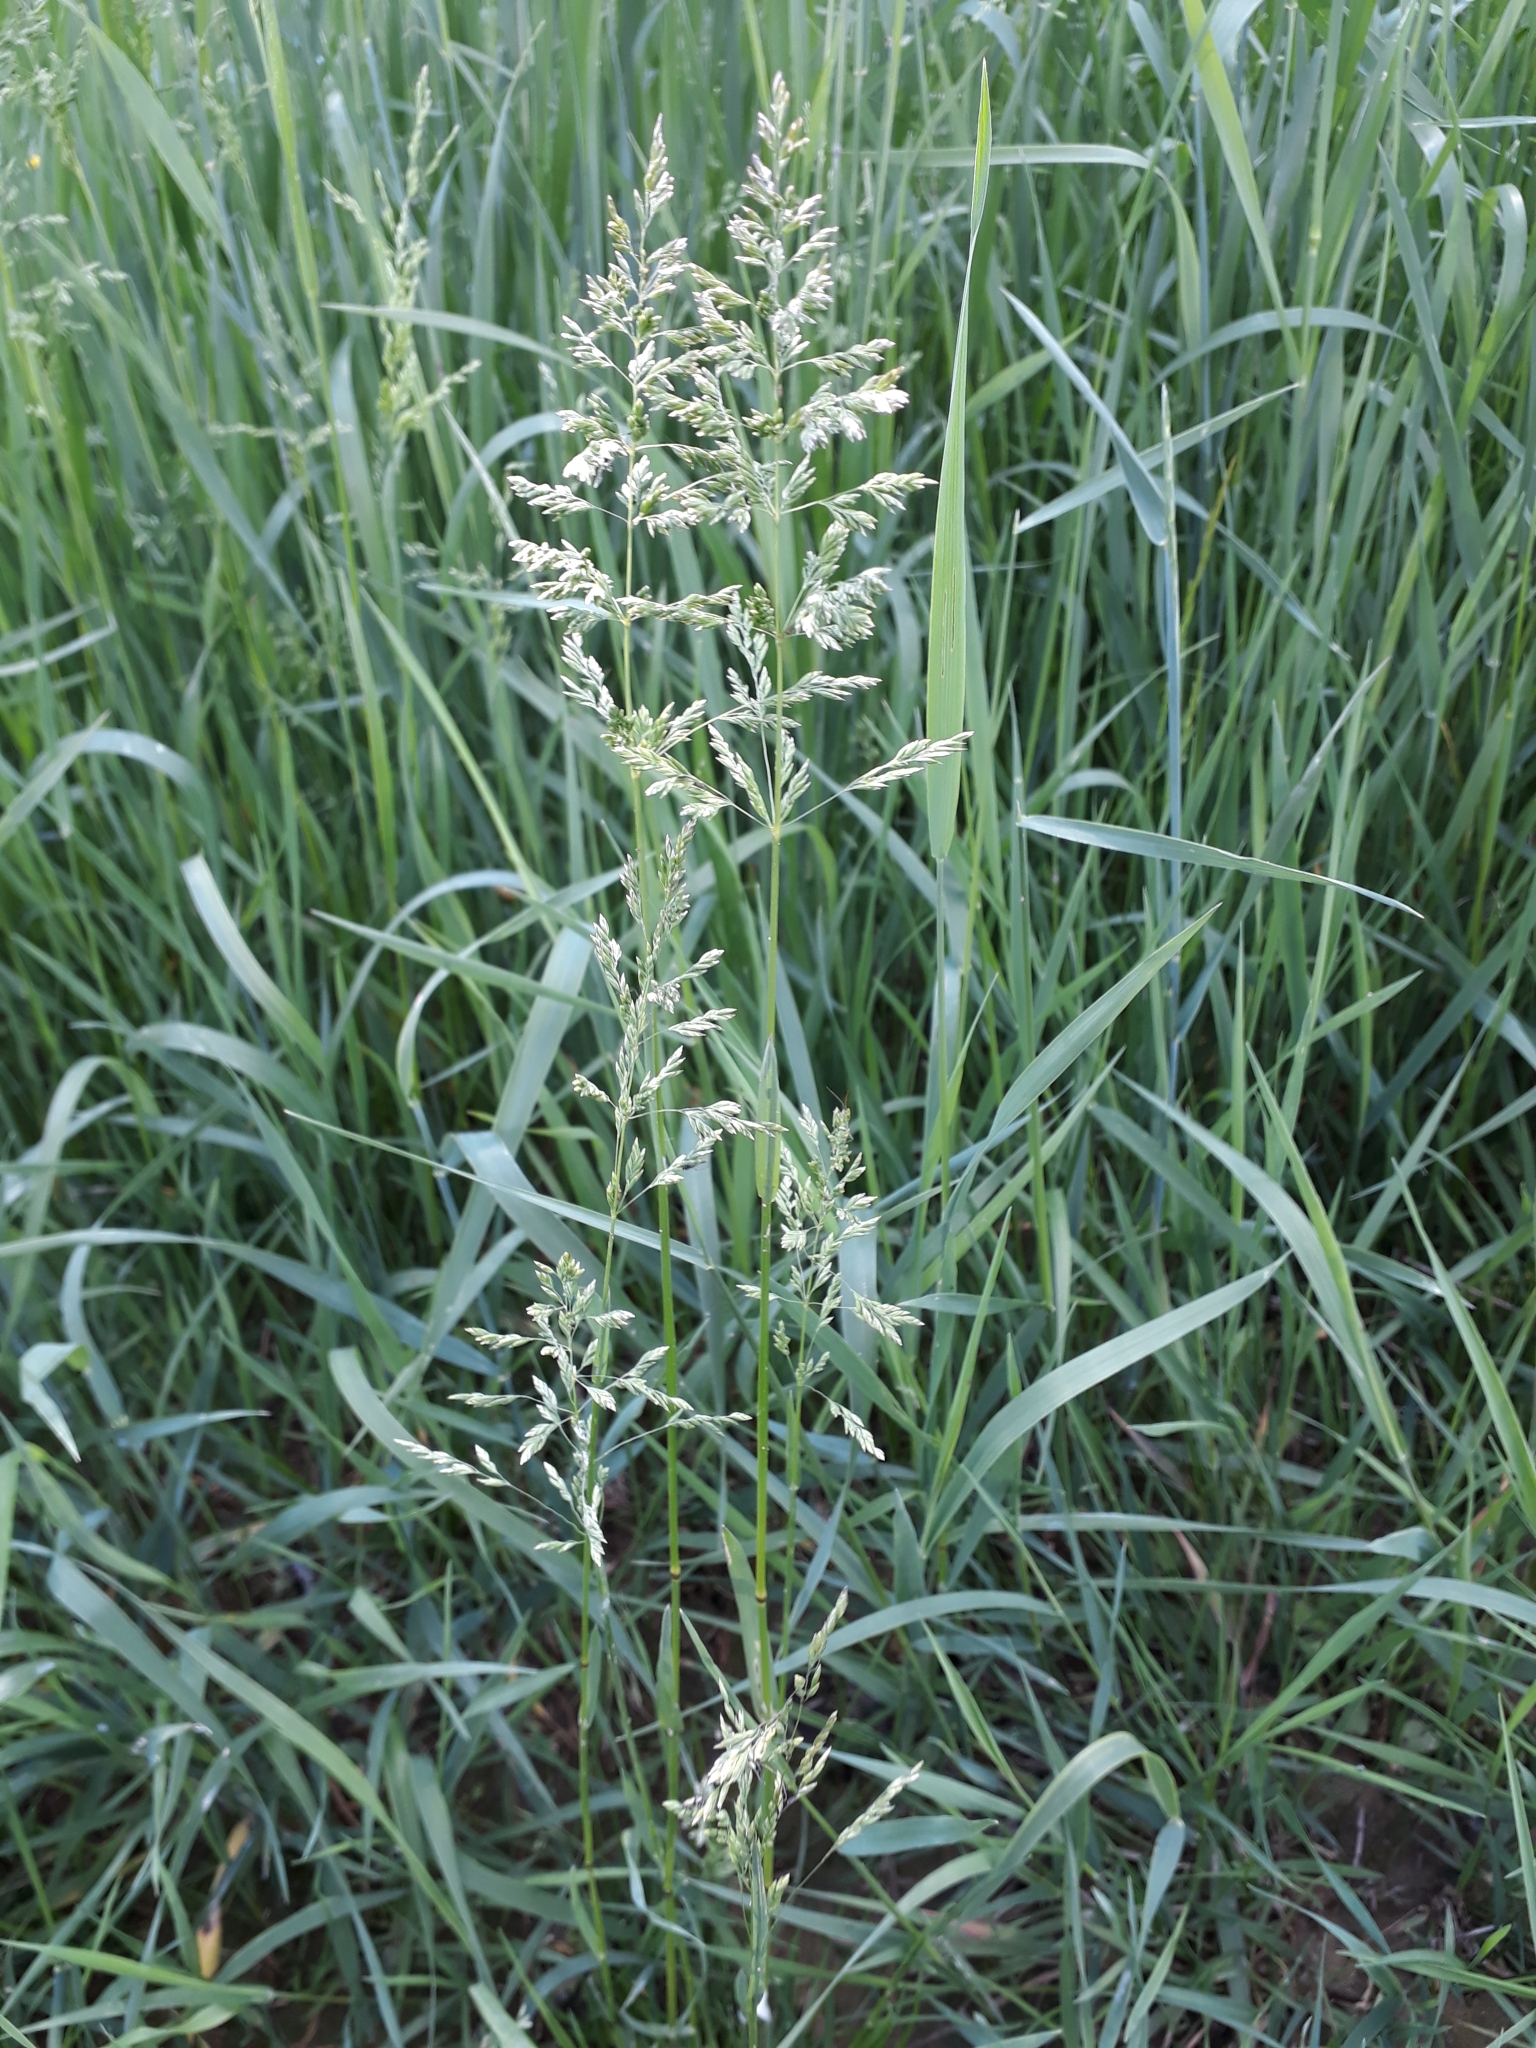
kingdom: Plantae
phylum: Tracheophyta
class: Liliopsida
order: Poales
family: Poaceae
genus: Poa
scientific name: Poa pratensis
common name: Kentucky bluegrass
